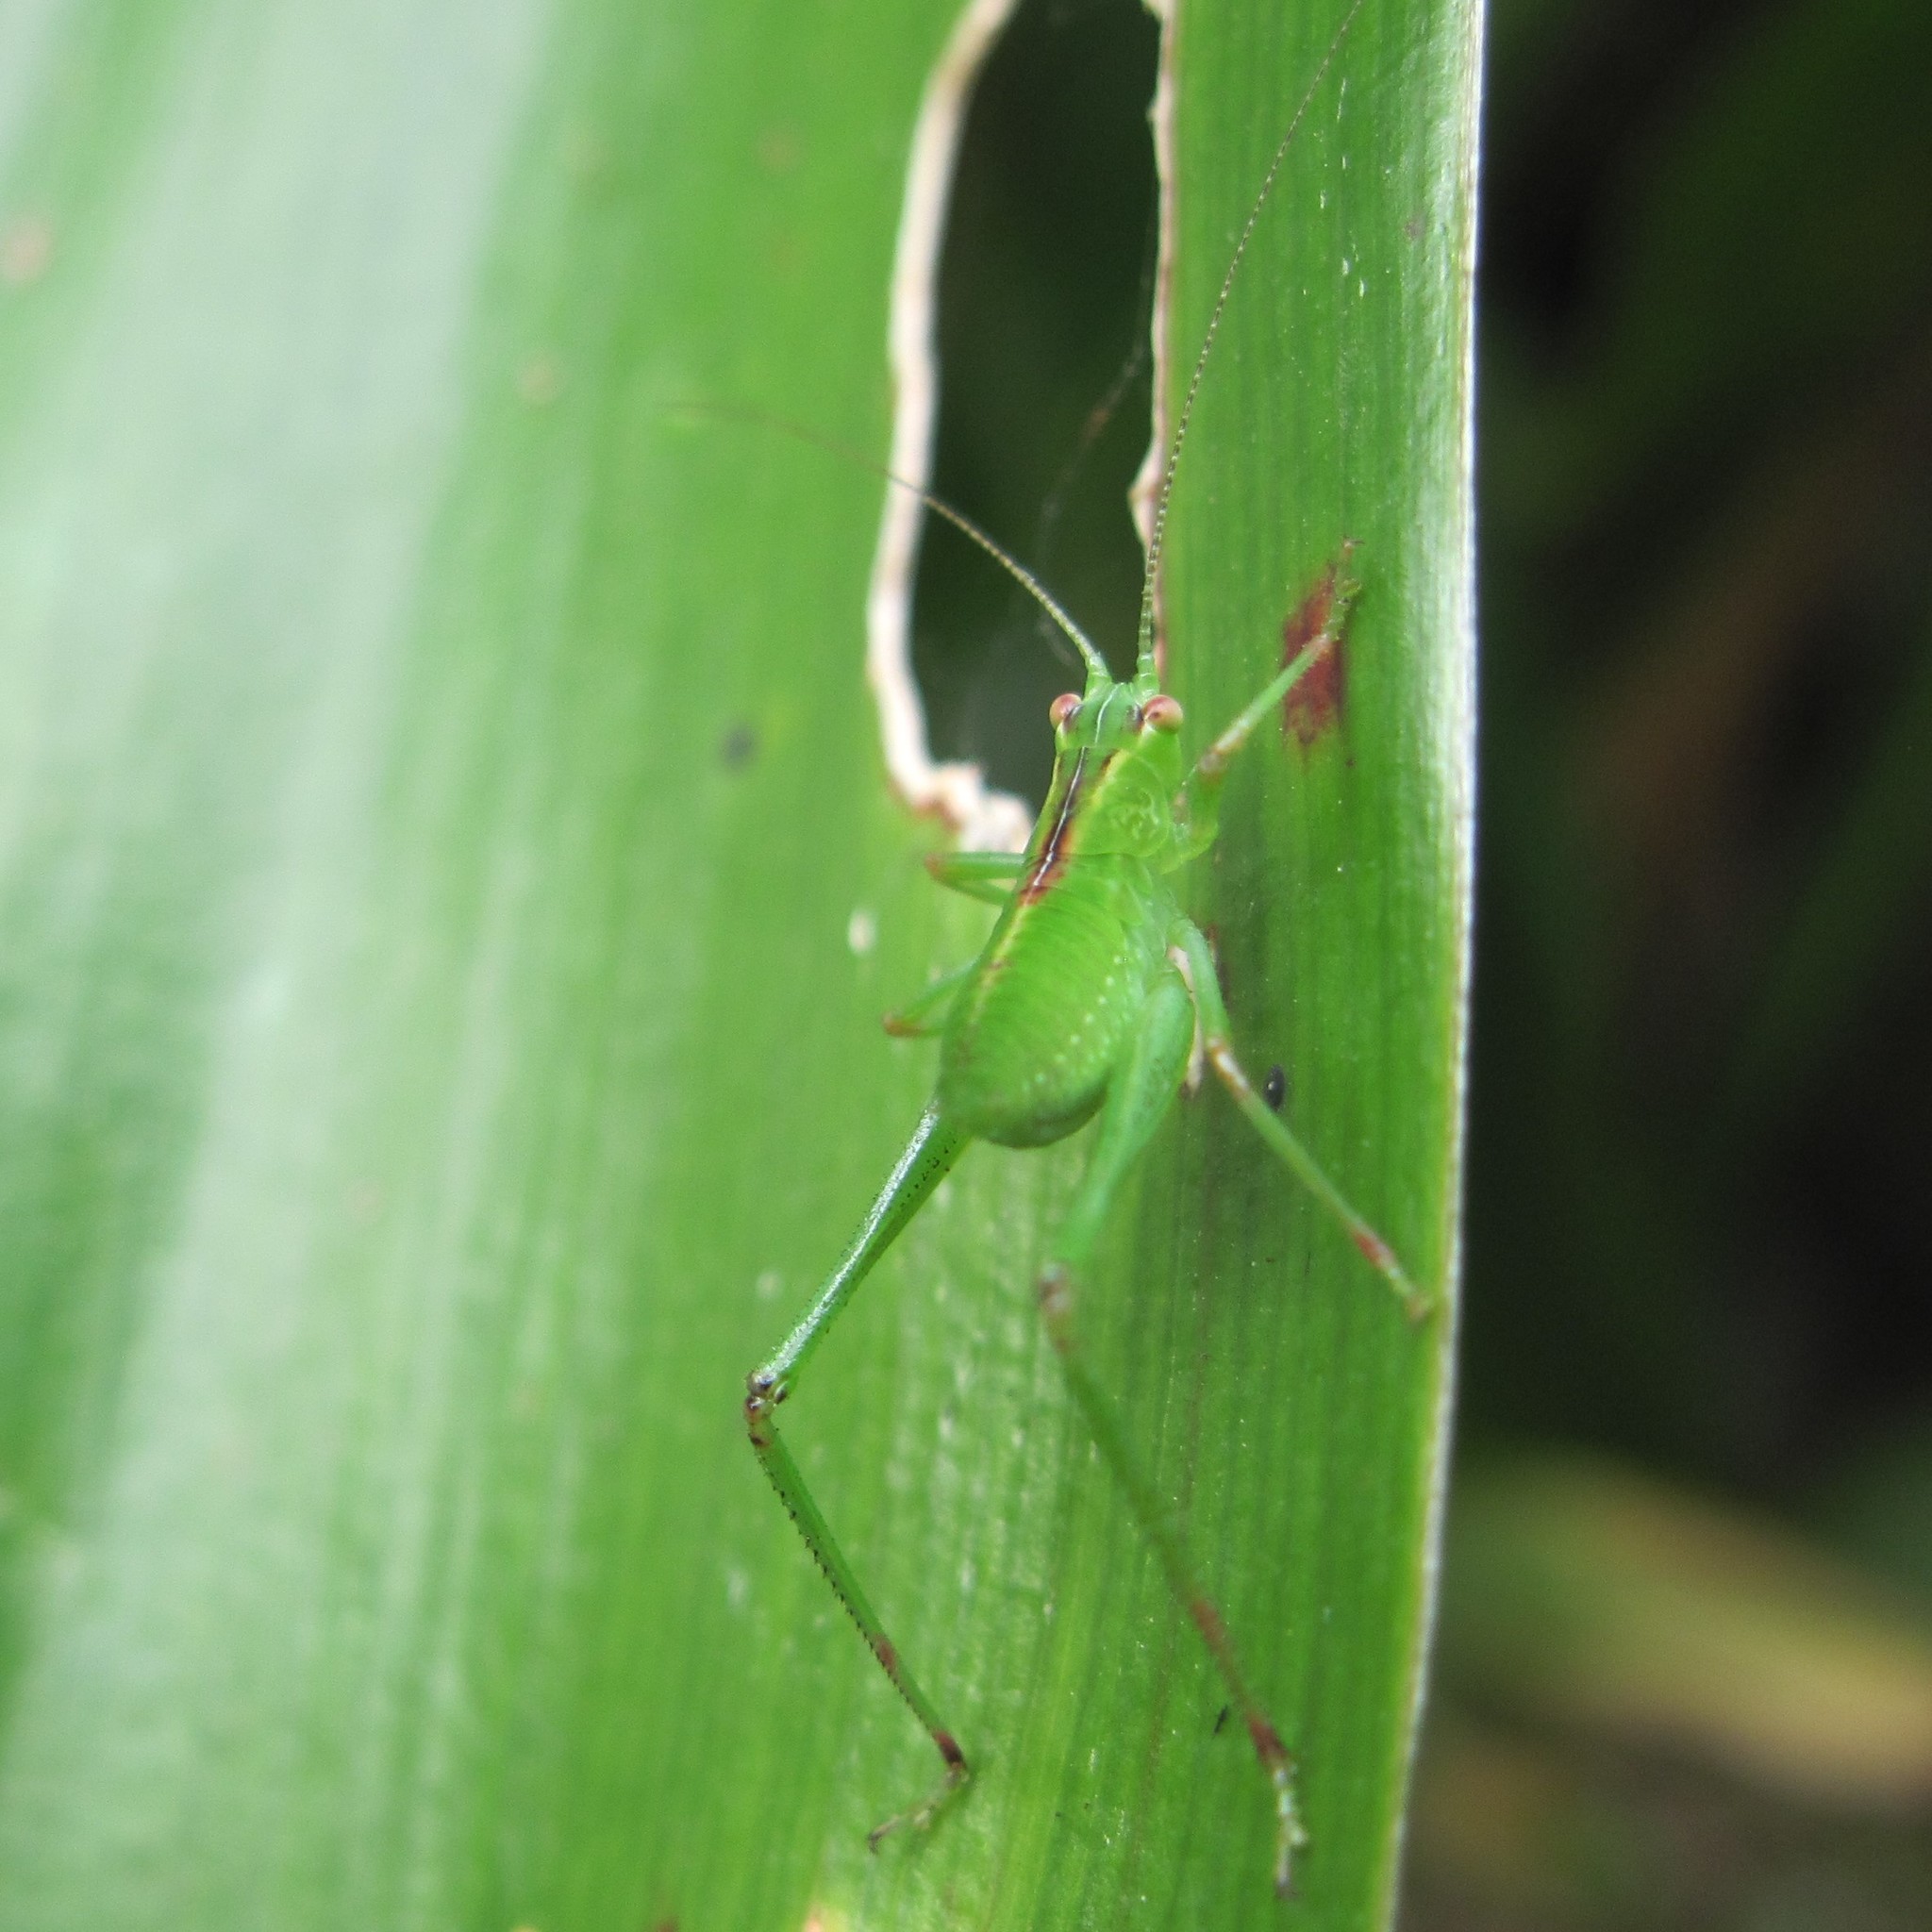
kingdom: Animalia
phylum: Arthropoda
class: Insecta
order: Orthoptera
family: Tettigoniidae
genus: Caedicia
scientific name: Caedicia simplex
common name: Common garden katydid
